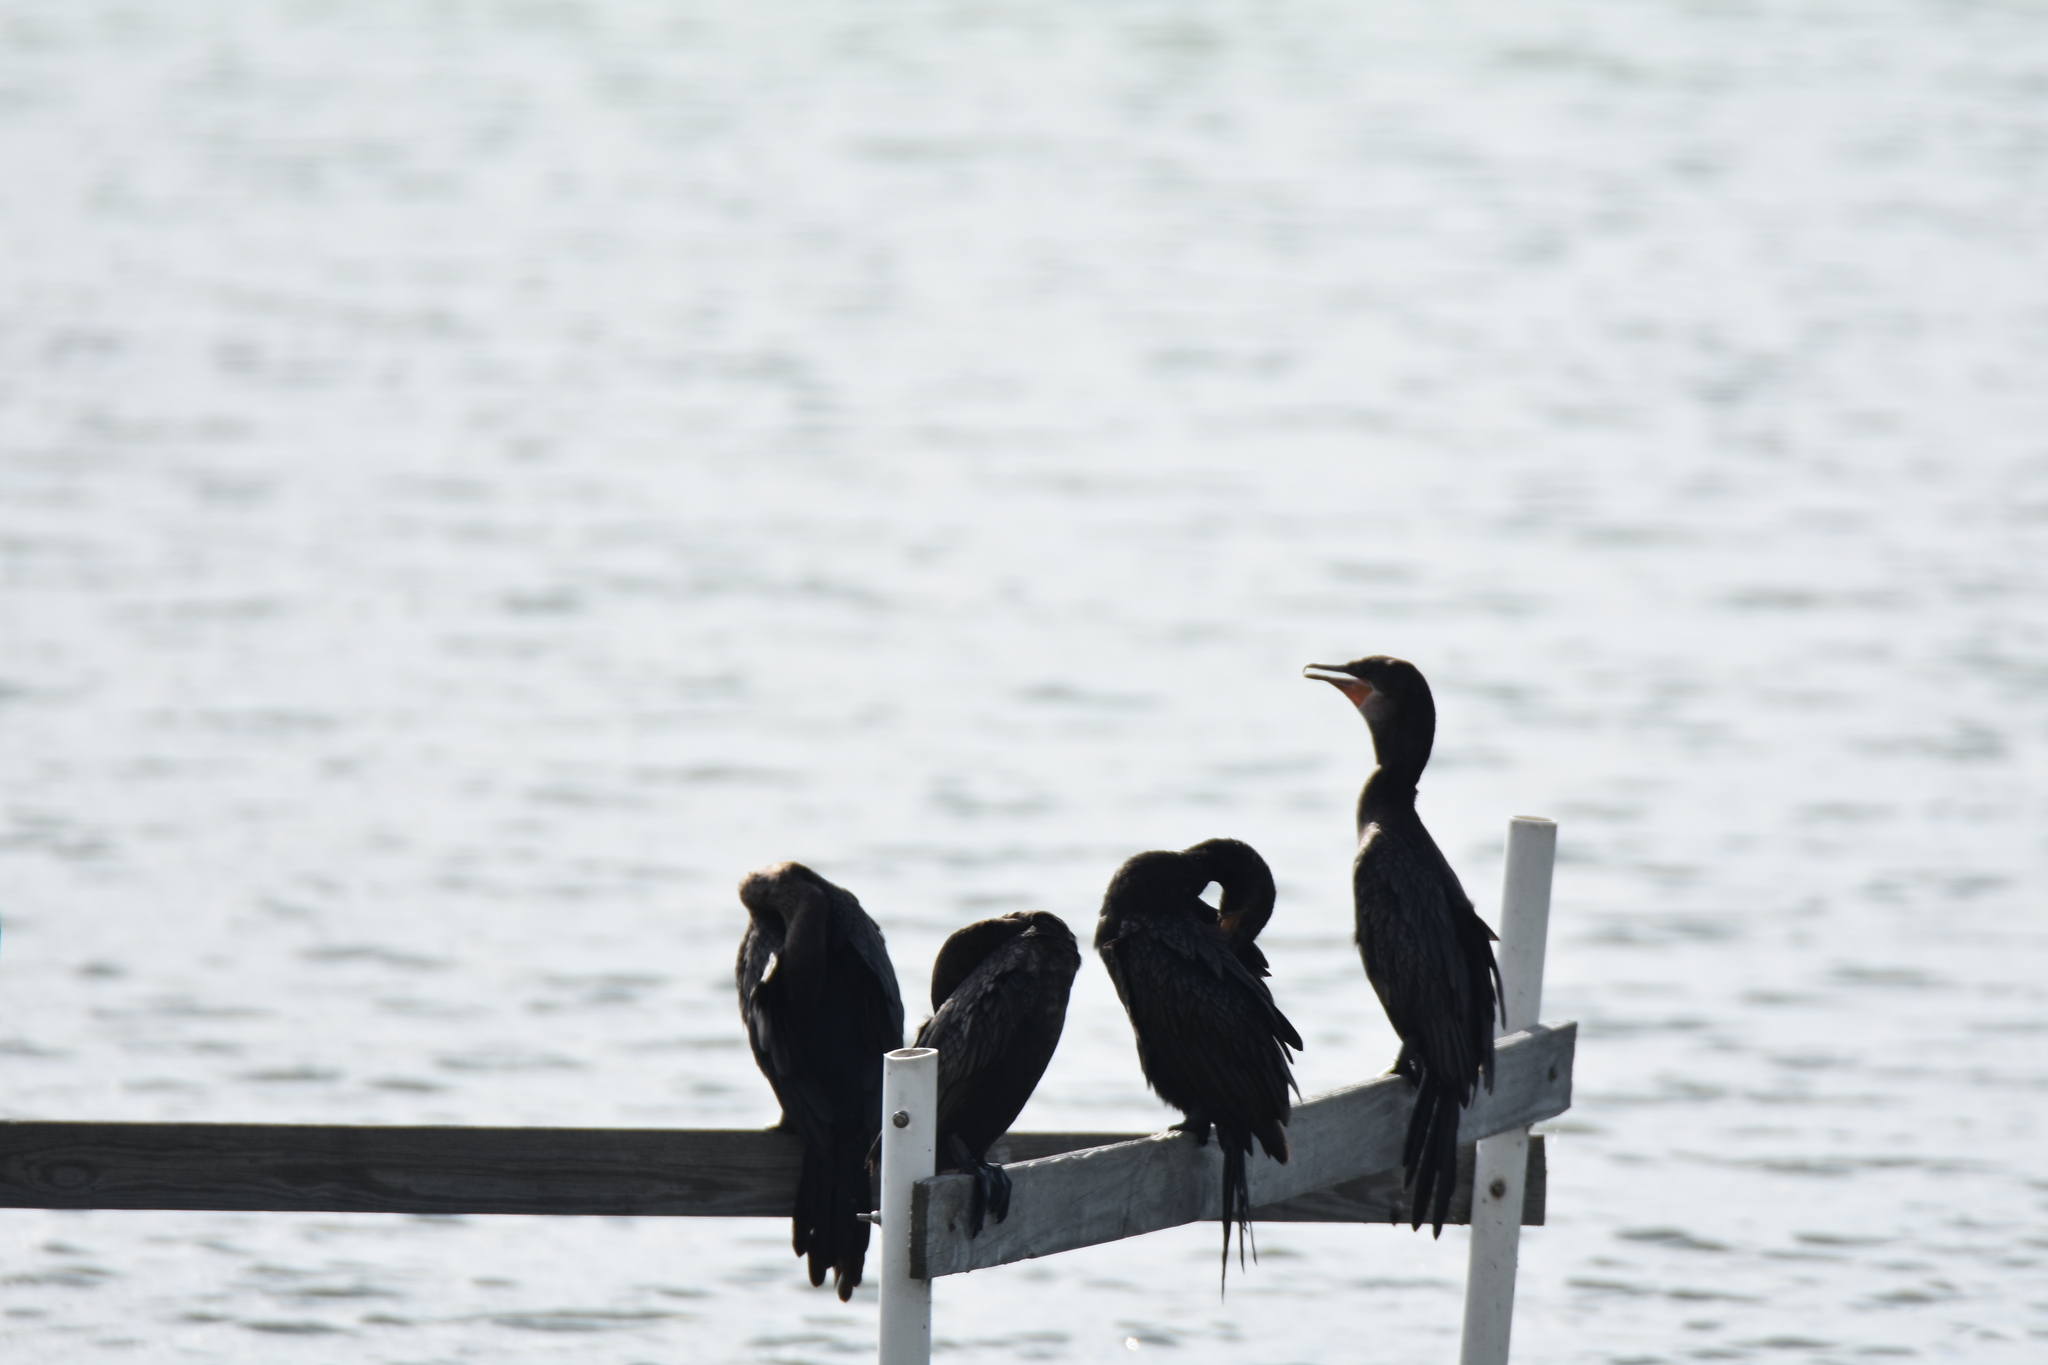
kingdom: Animalia
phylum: Chordata
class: Aves
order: Suliformes
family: Phalacrocoracidae
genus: Phalacrocorax
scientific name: Phalacrocorax brasilianus
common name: Neotropic cormorant
